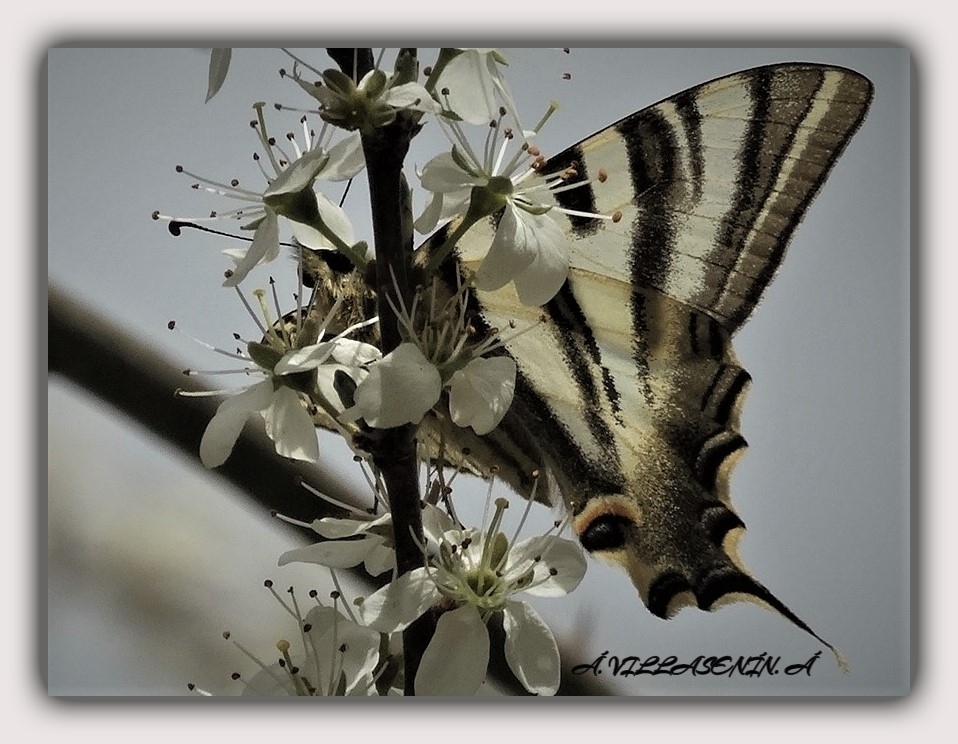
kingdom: Animalia
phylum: Arthropoda
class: Insecta
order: Lepidoptera
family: Papilionidae
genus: Iphiclides
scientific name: Iphiclides feisthamelii
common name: Iberian scarce swallowtail
